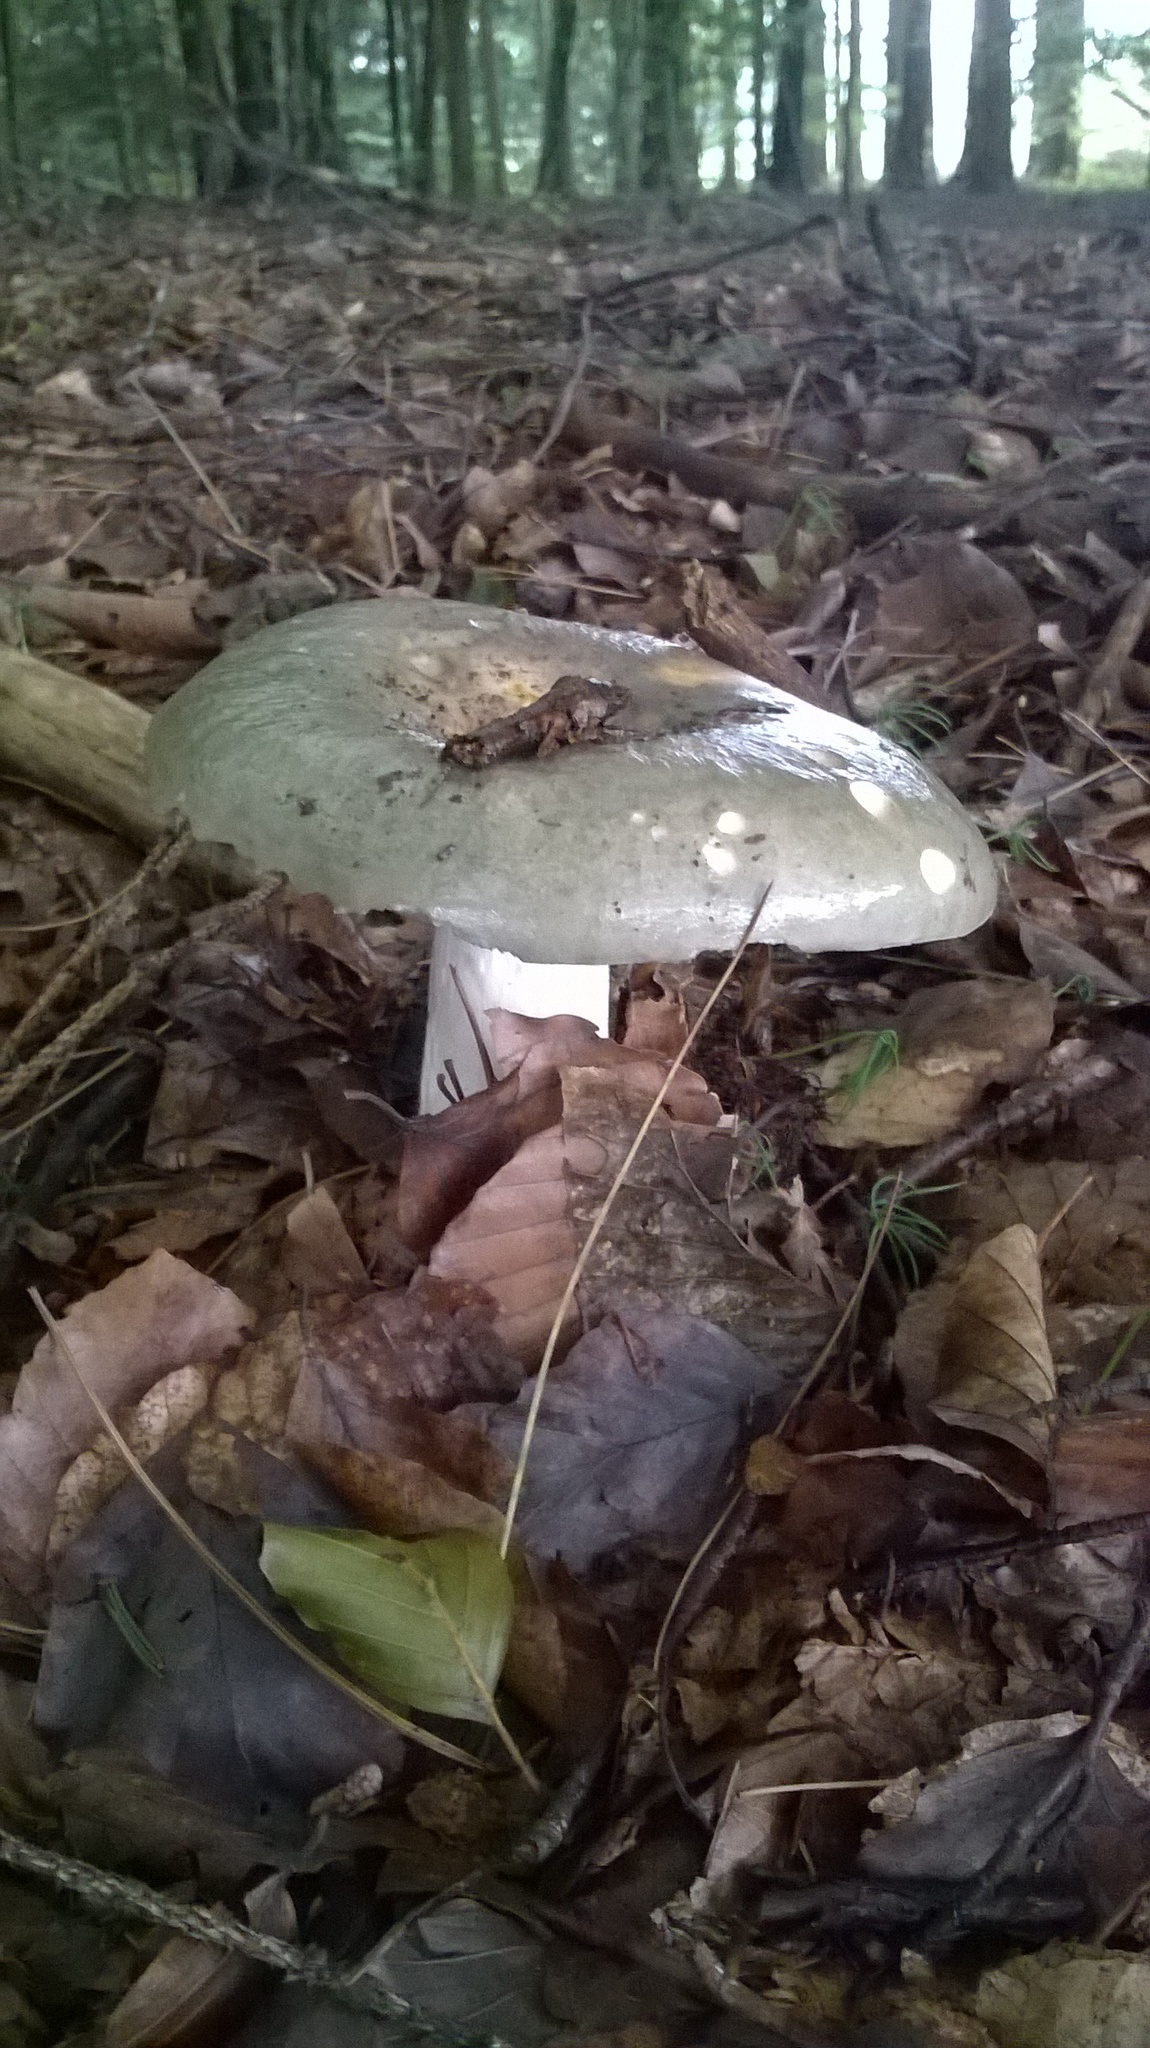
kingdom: Fungi
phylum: Basidiomycota
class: Agaricomycetes
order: Russulales
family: Russulaceae
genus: Russula
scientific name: Russula aeruginea
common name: Green brittlegill
